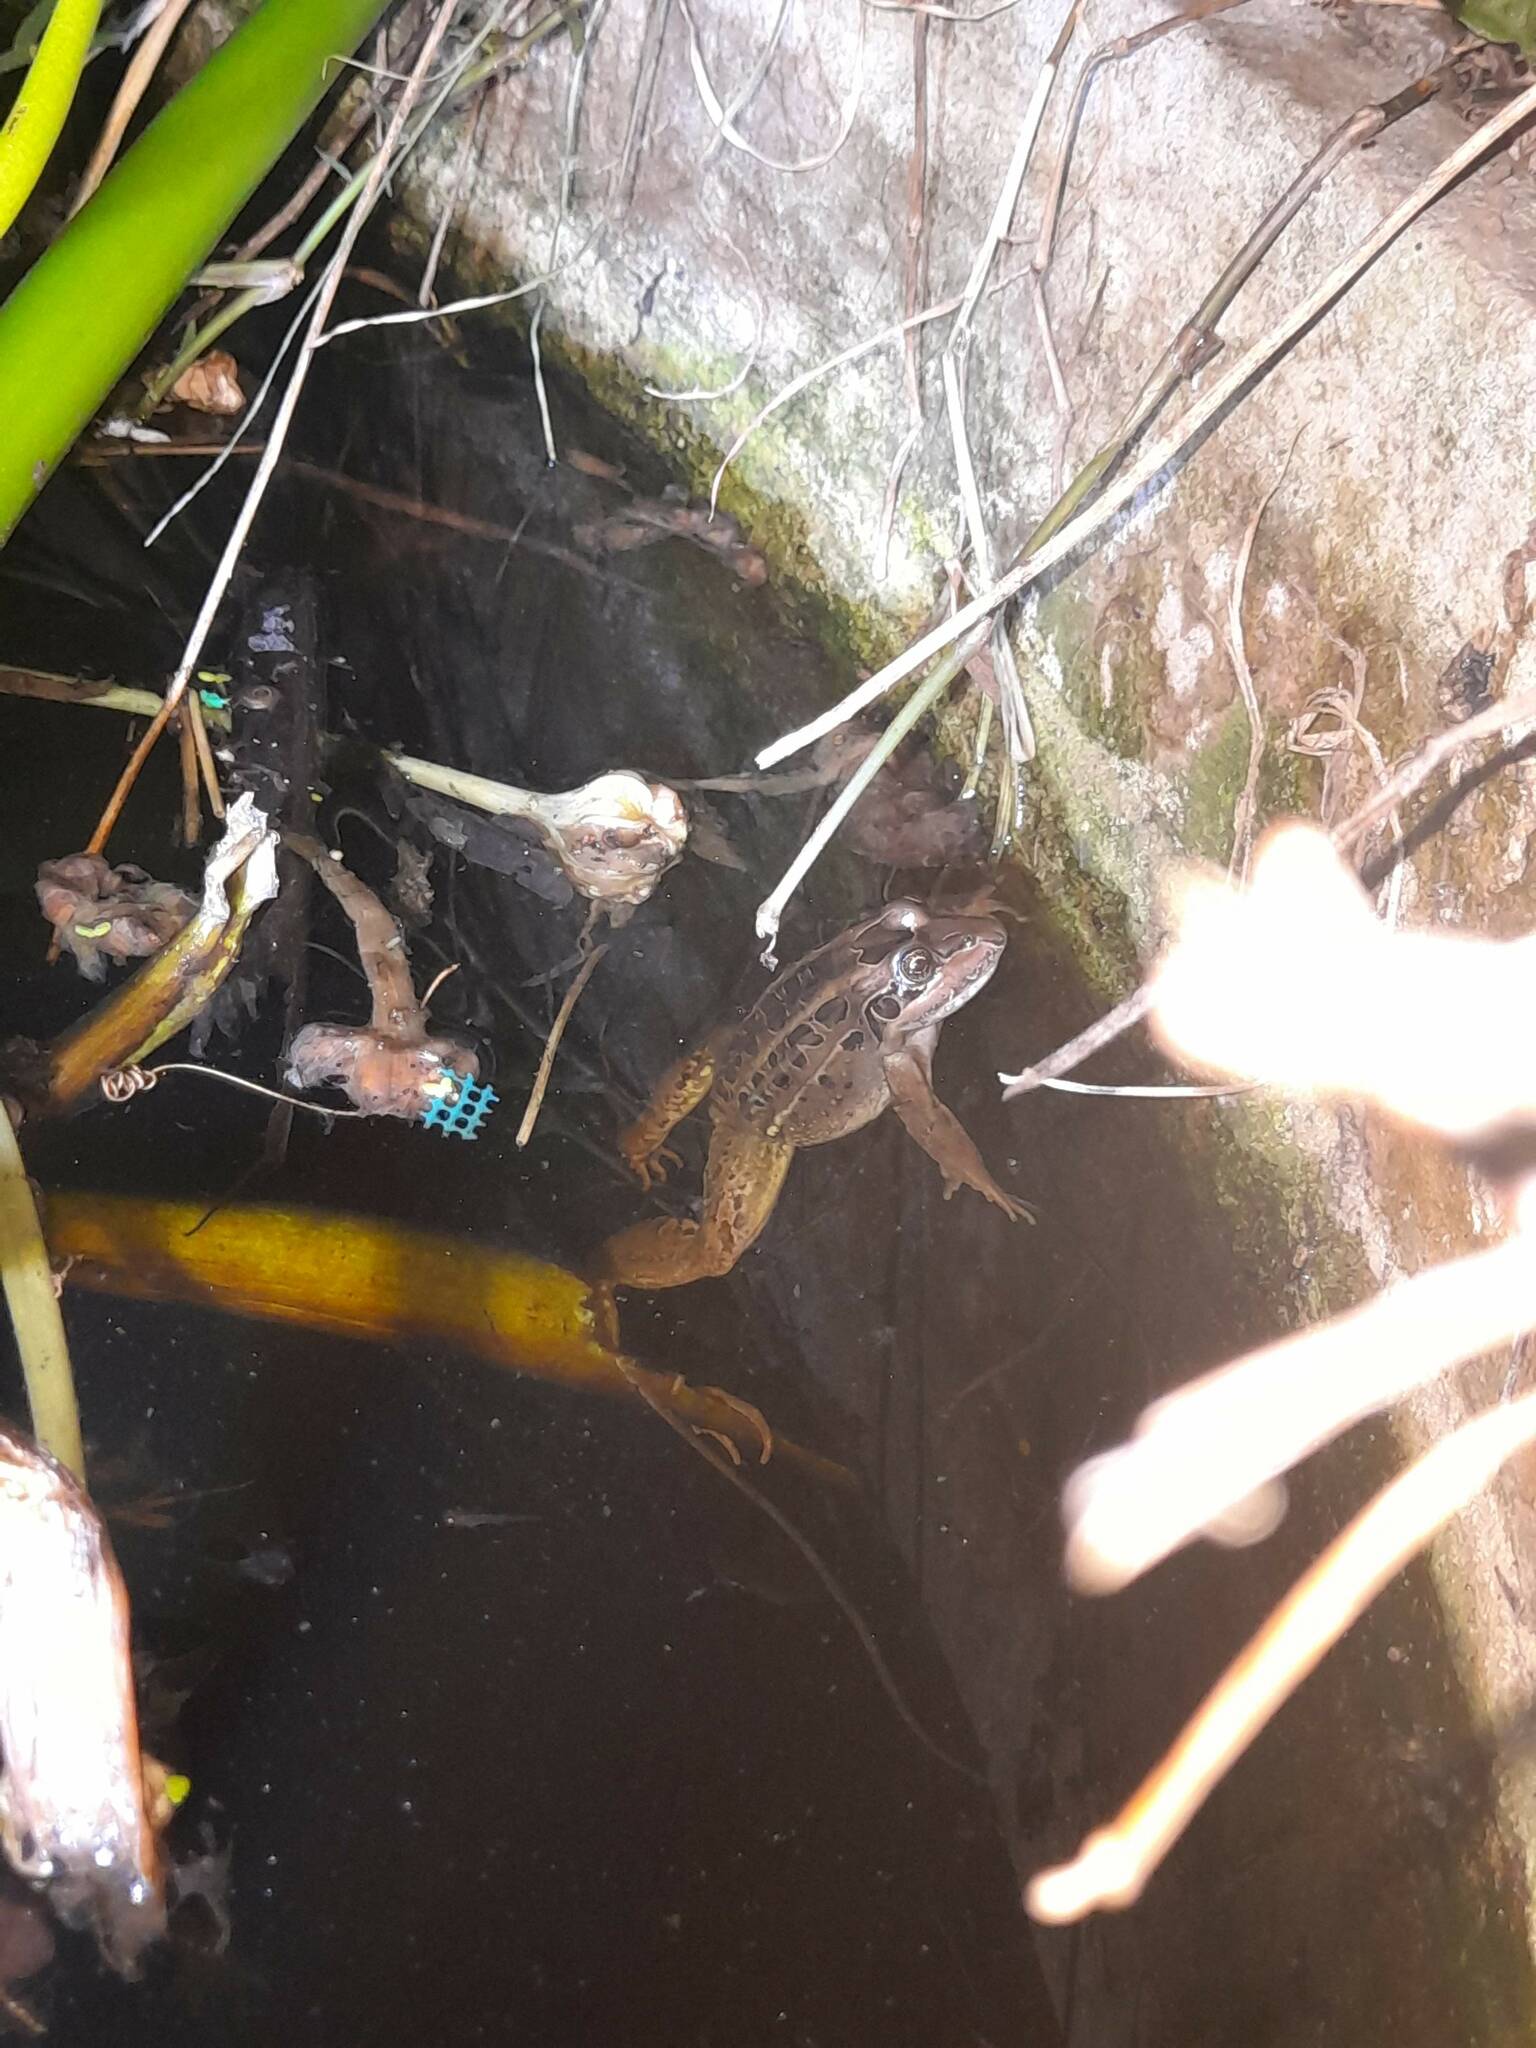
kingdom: Animalia
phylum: Chordata
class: Amphibia
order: Anura
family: Leptodactylidae
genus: Leptodactylus
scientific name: Leptodactylus luctator
